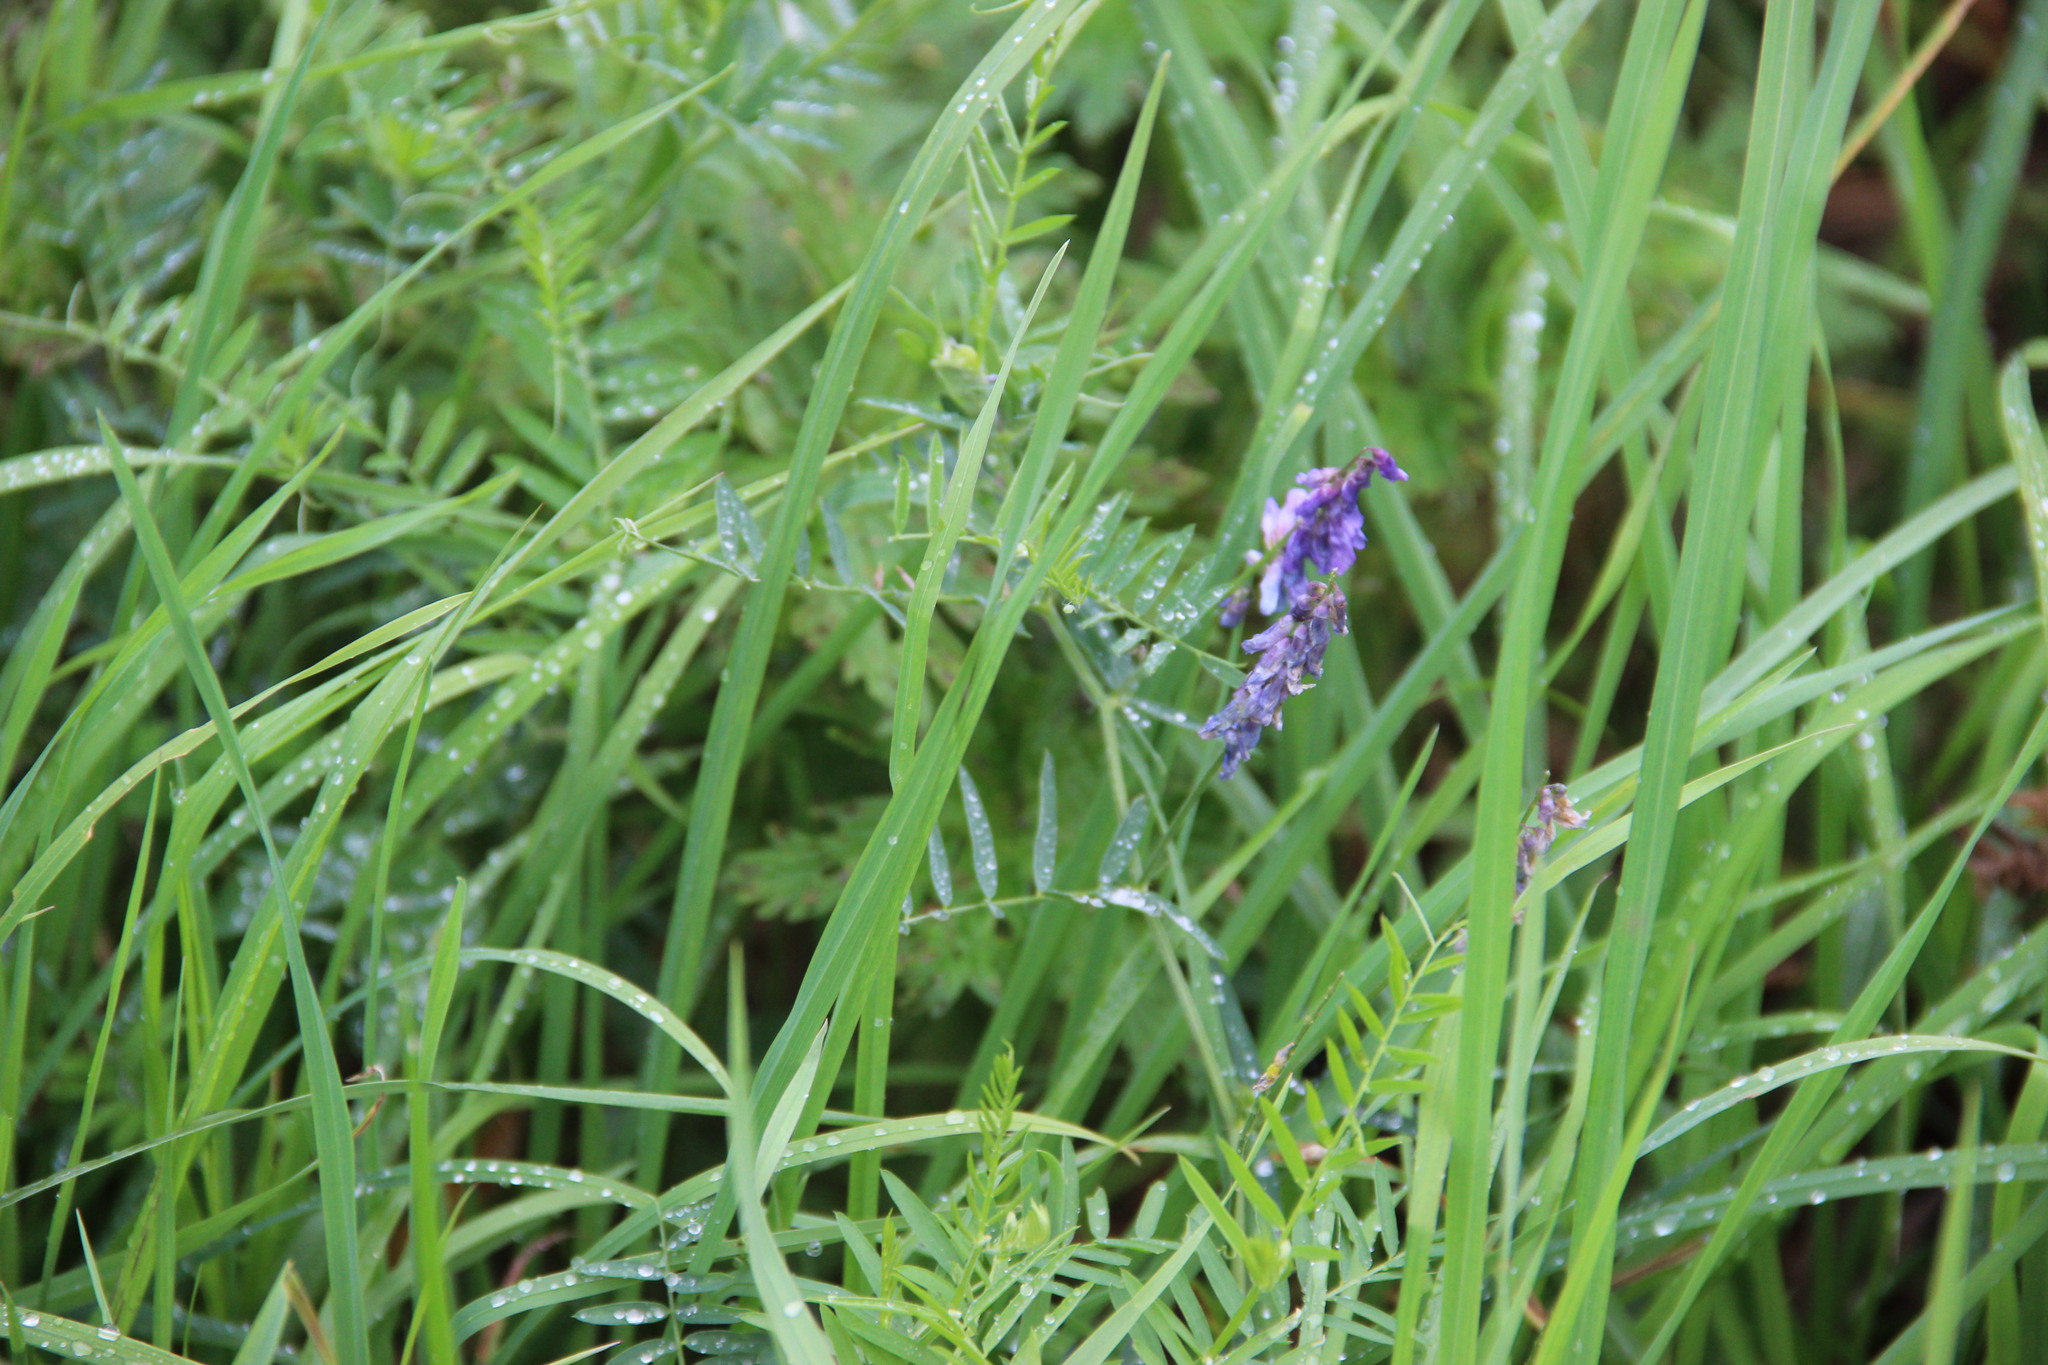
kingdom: Plantae
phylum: Tracheophyta
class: Magnoliopsida
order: Fabales
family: Fabaceae
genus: Vicia
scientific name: Vicia cracca
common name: Bird vetch
